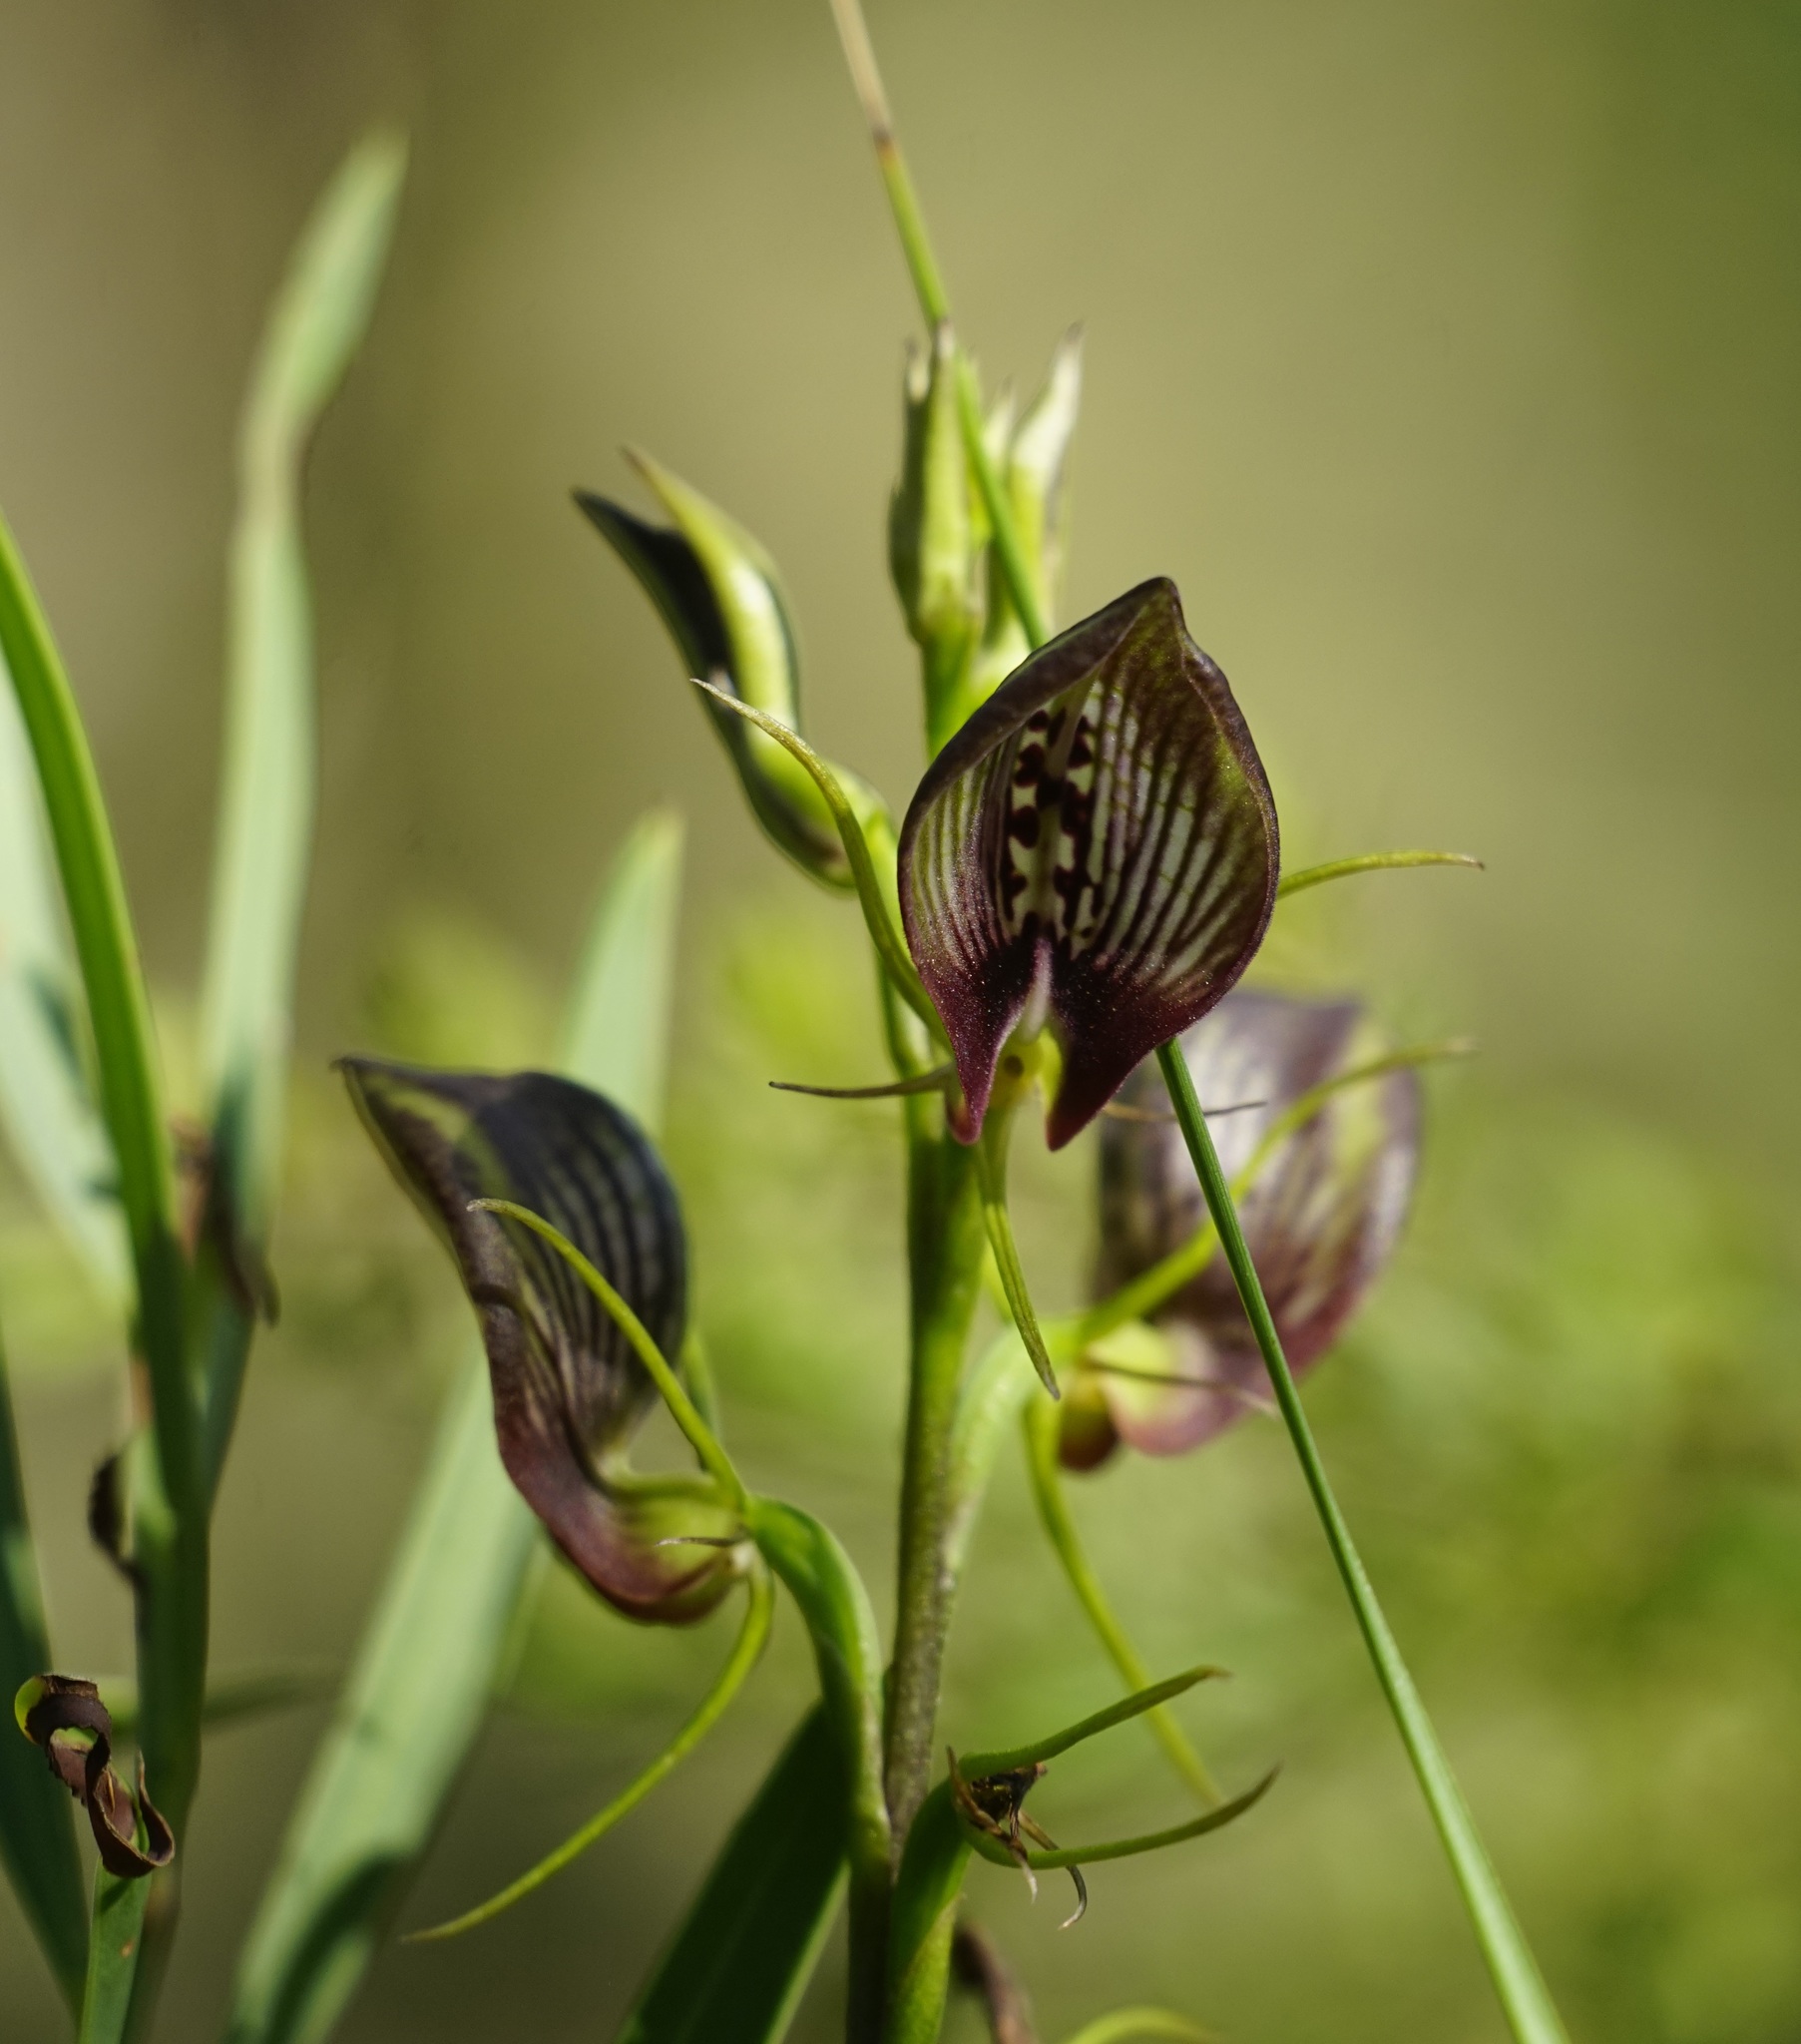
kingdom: Plantae
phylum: Tracheophyta
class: Liliopsida
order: Asparagales
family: Orchidaceae
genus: Cryptostylis
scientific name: Cryptostylis erecta
